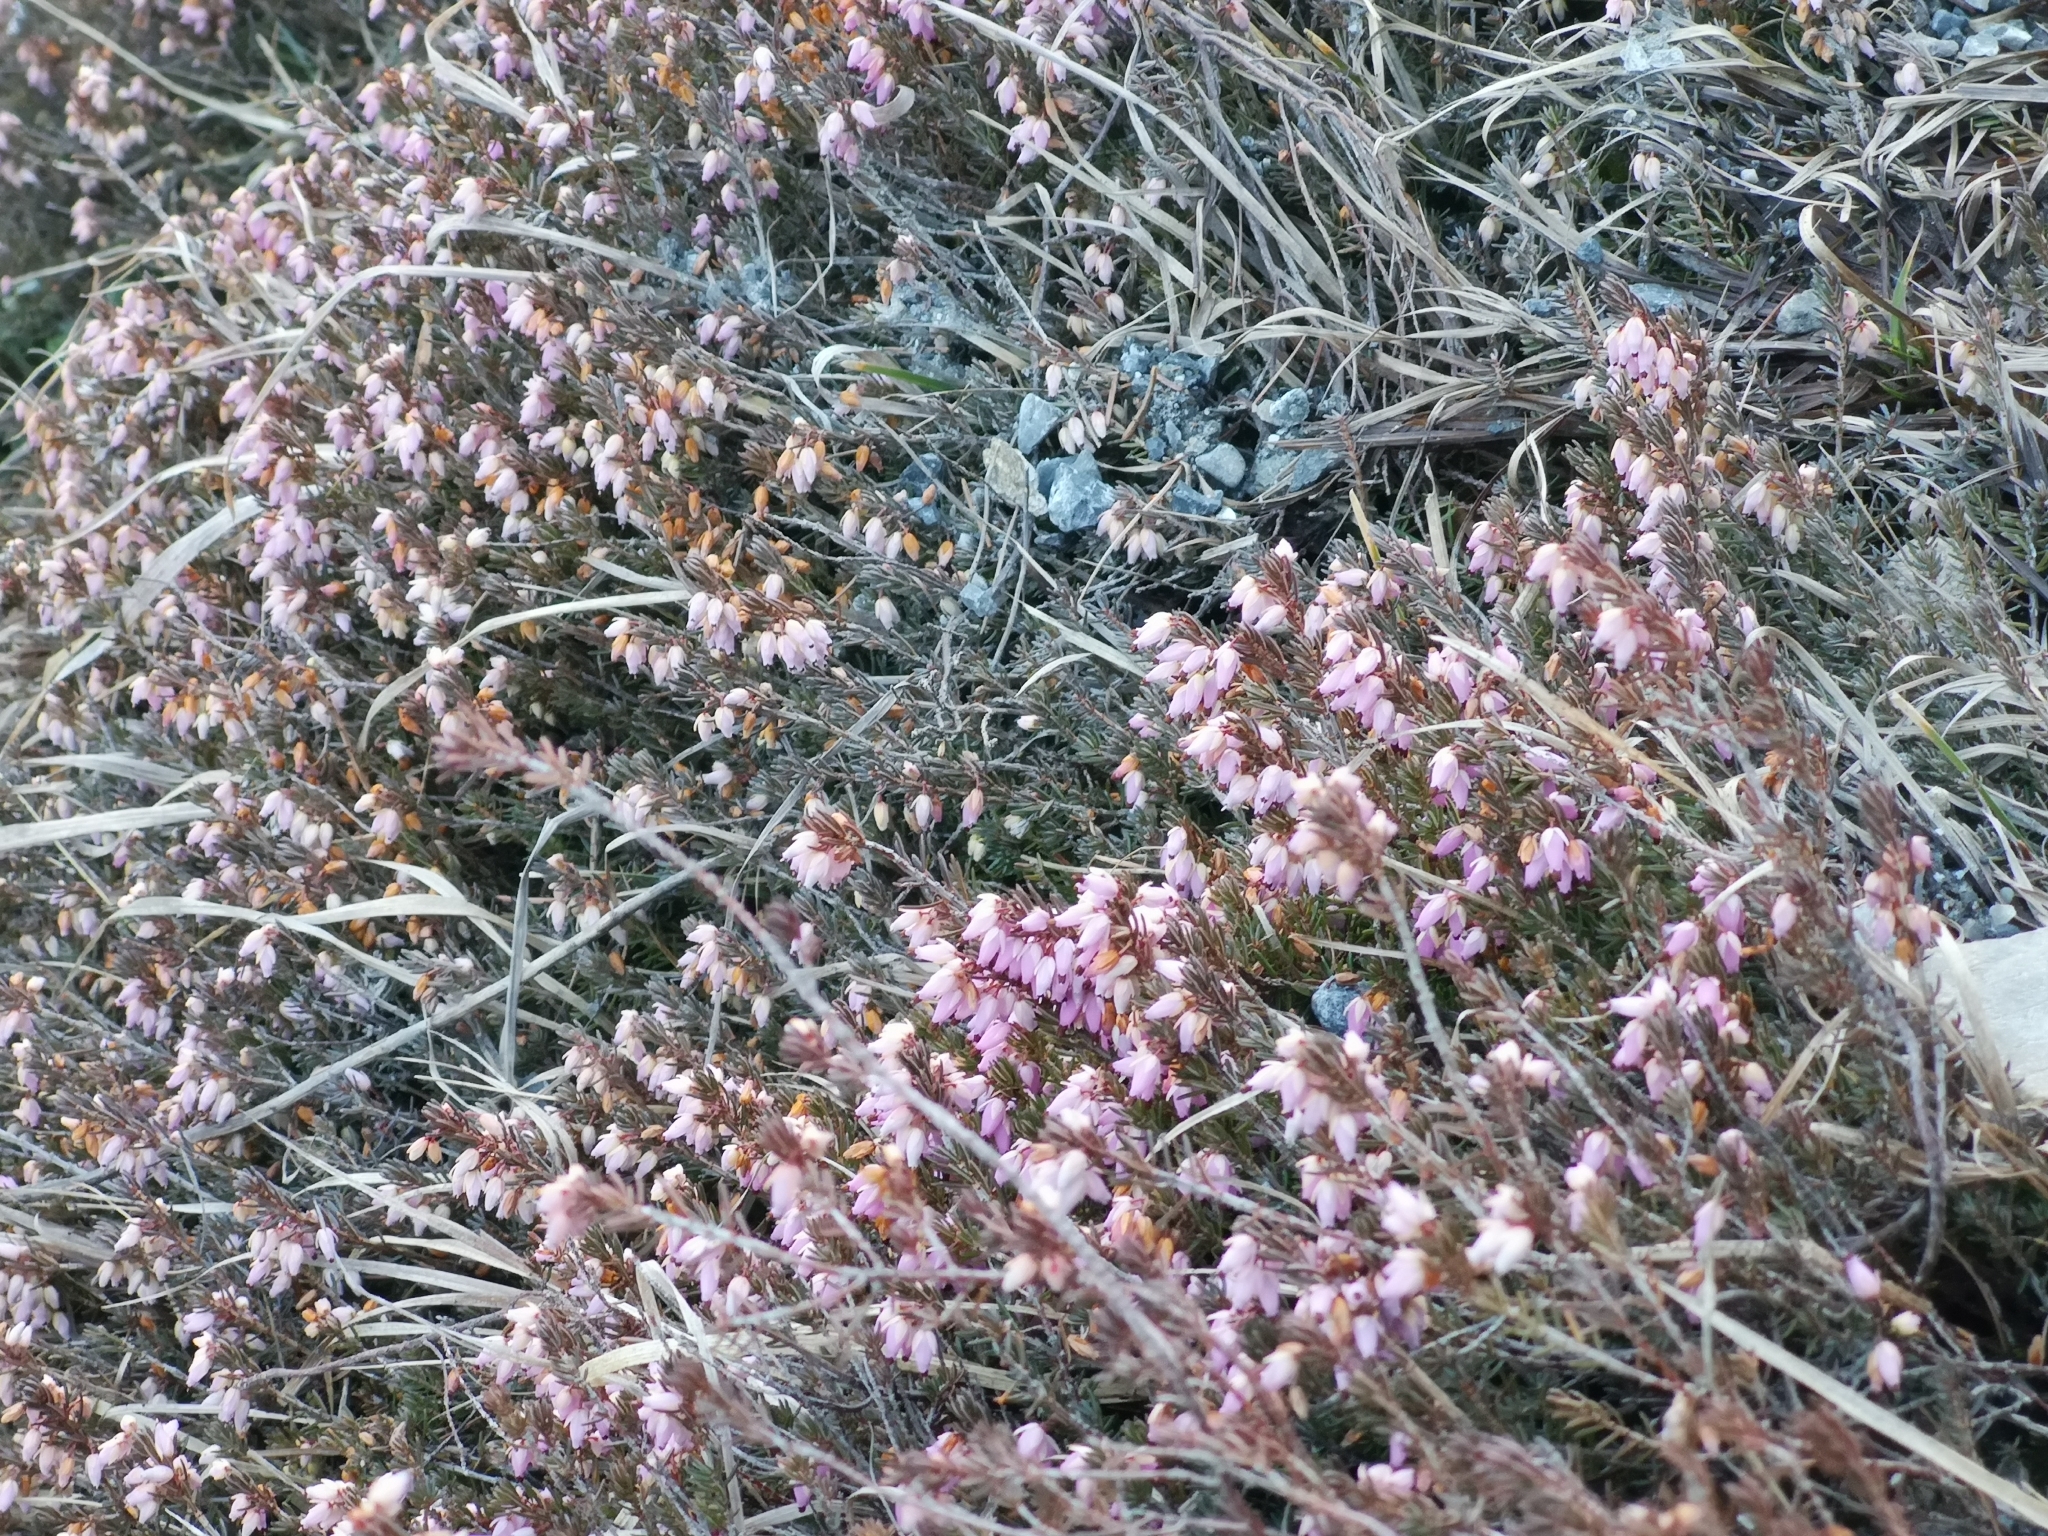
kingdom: Plantae
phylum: Tracheophyta
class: Magnoliopsida
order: Ericales
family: Ericaceae
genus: Erica
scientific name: Erica carnea
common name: Winter heath
